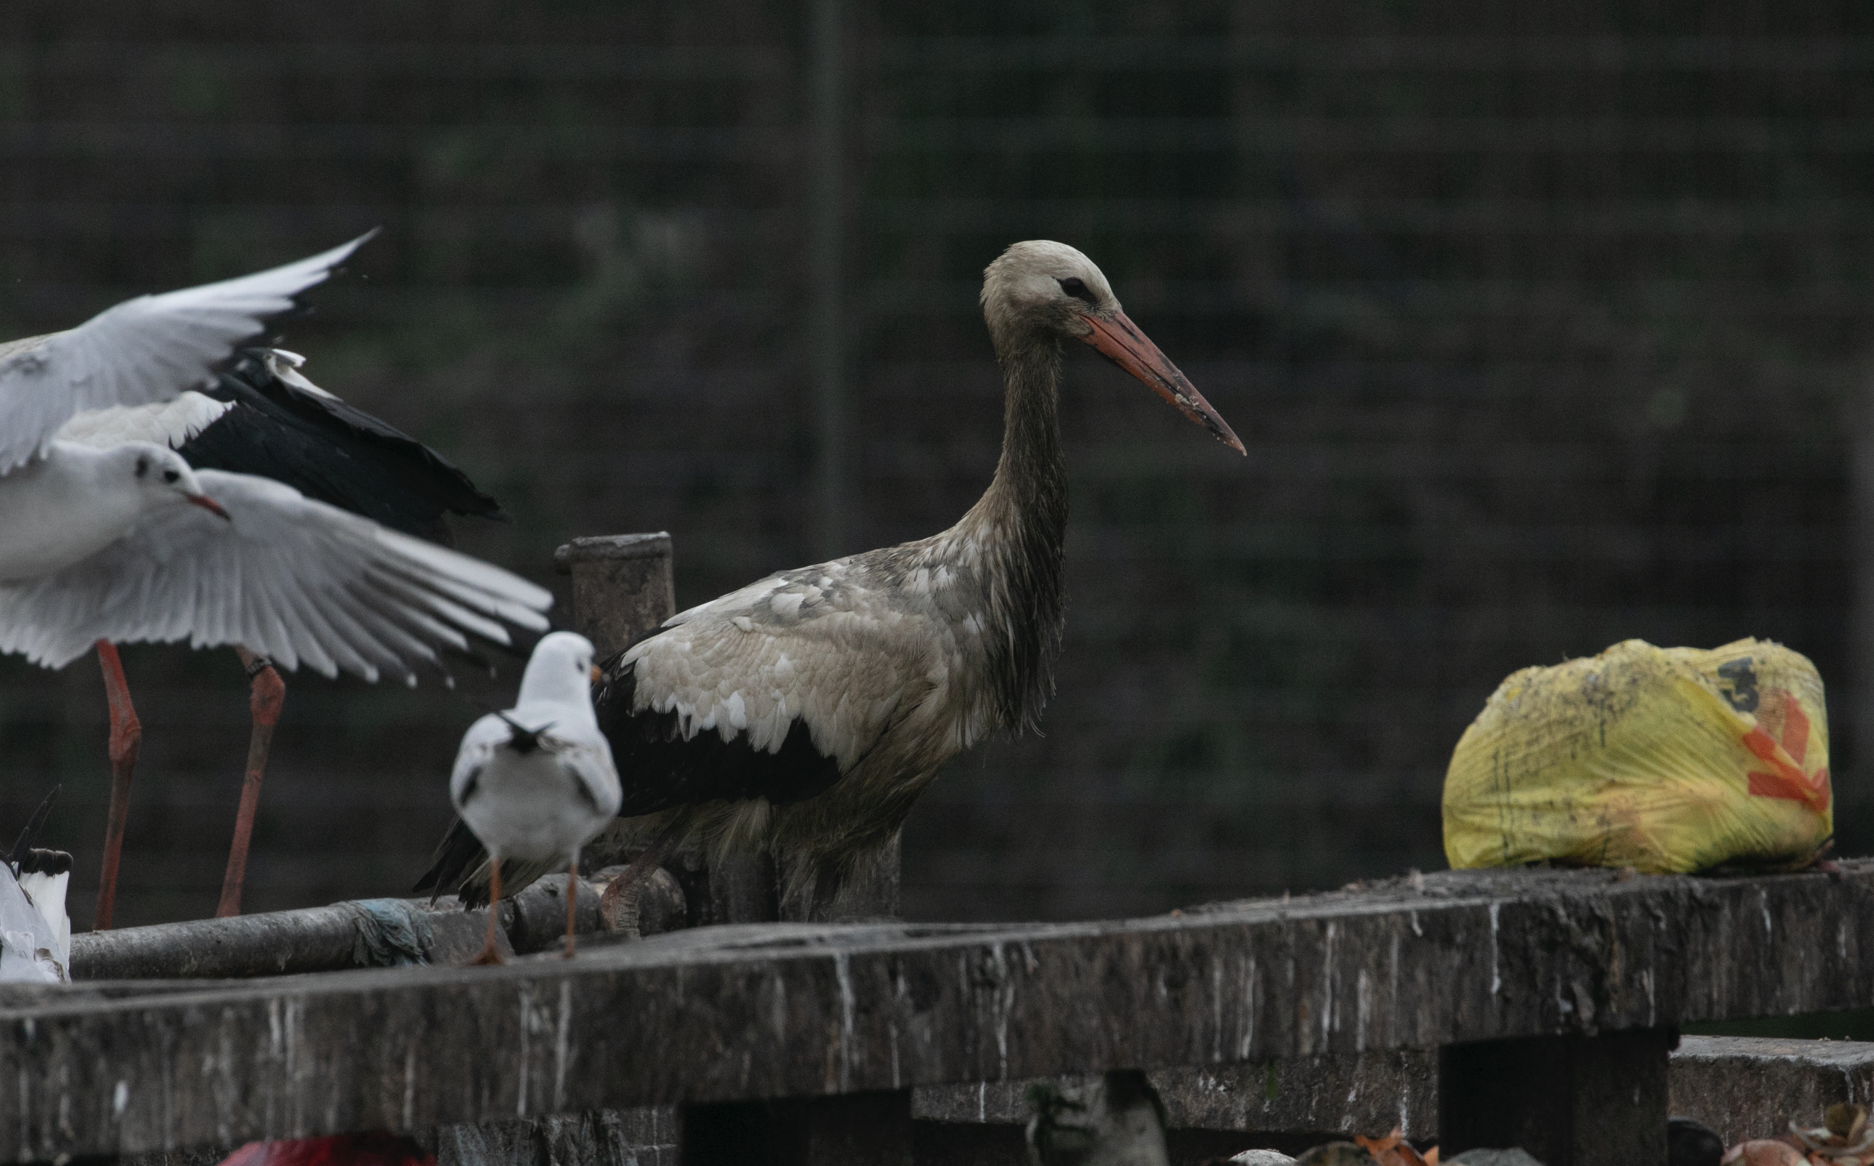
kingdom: Animalia
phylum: Chordata
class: Aves
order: Ciconiiformes
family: Ciconiidae
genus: Ciconia
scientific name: Ciconia ciconia
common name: White stork
